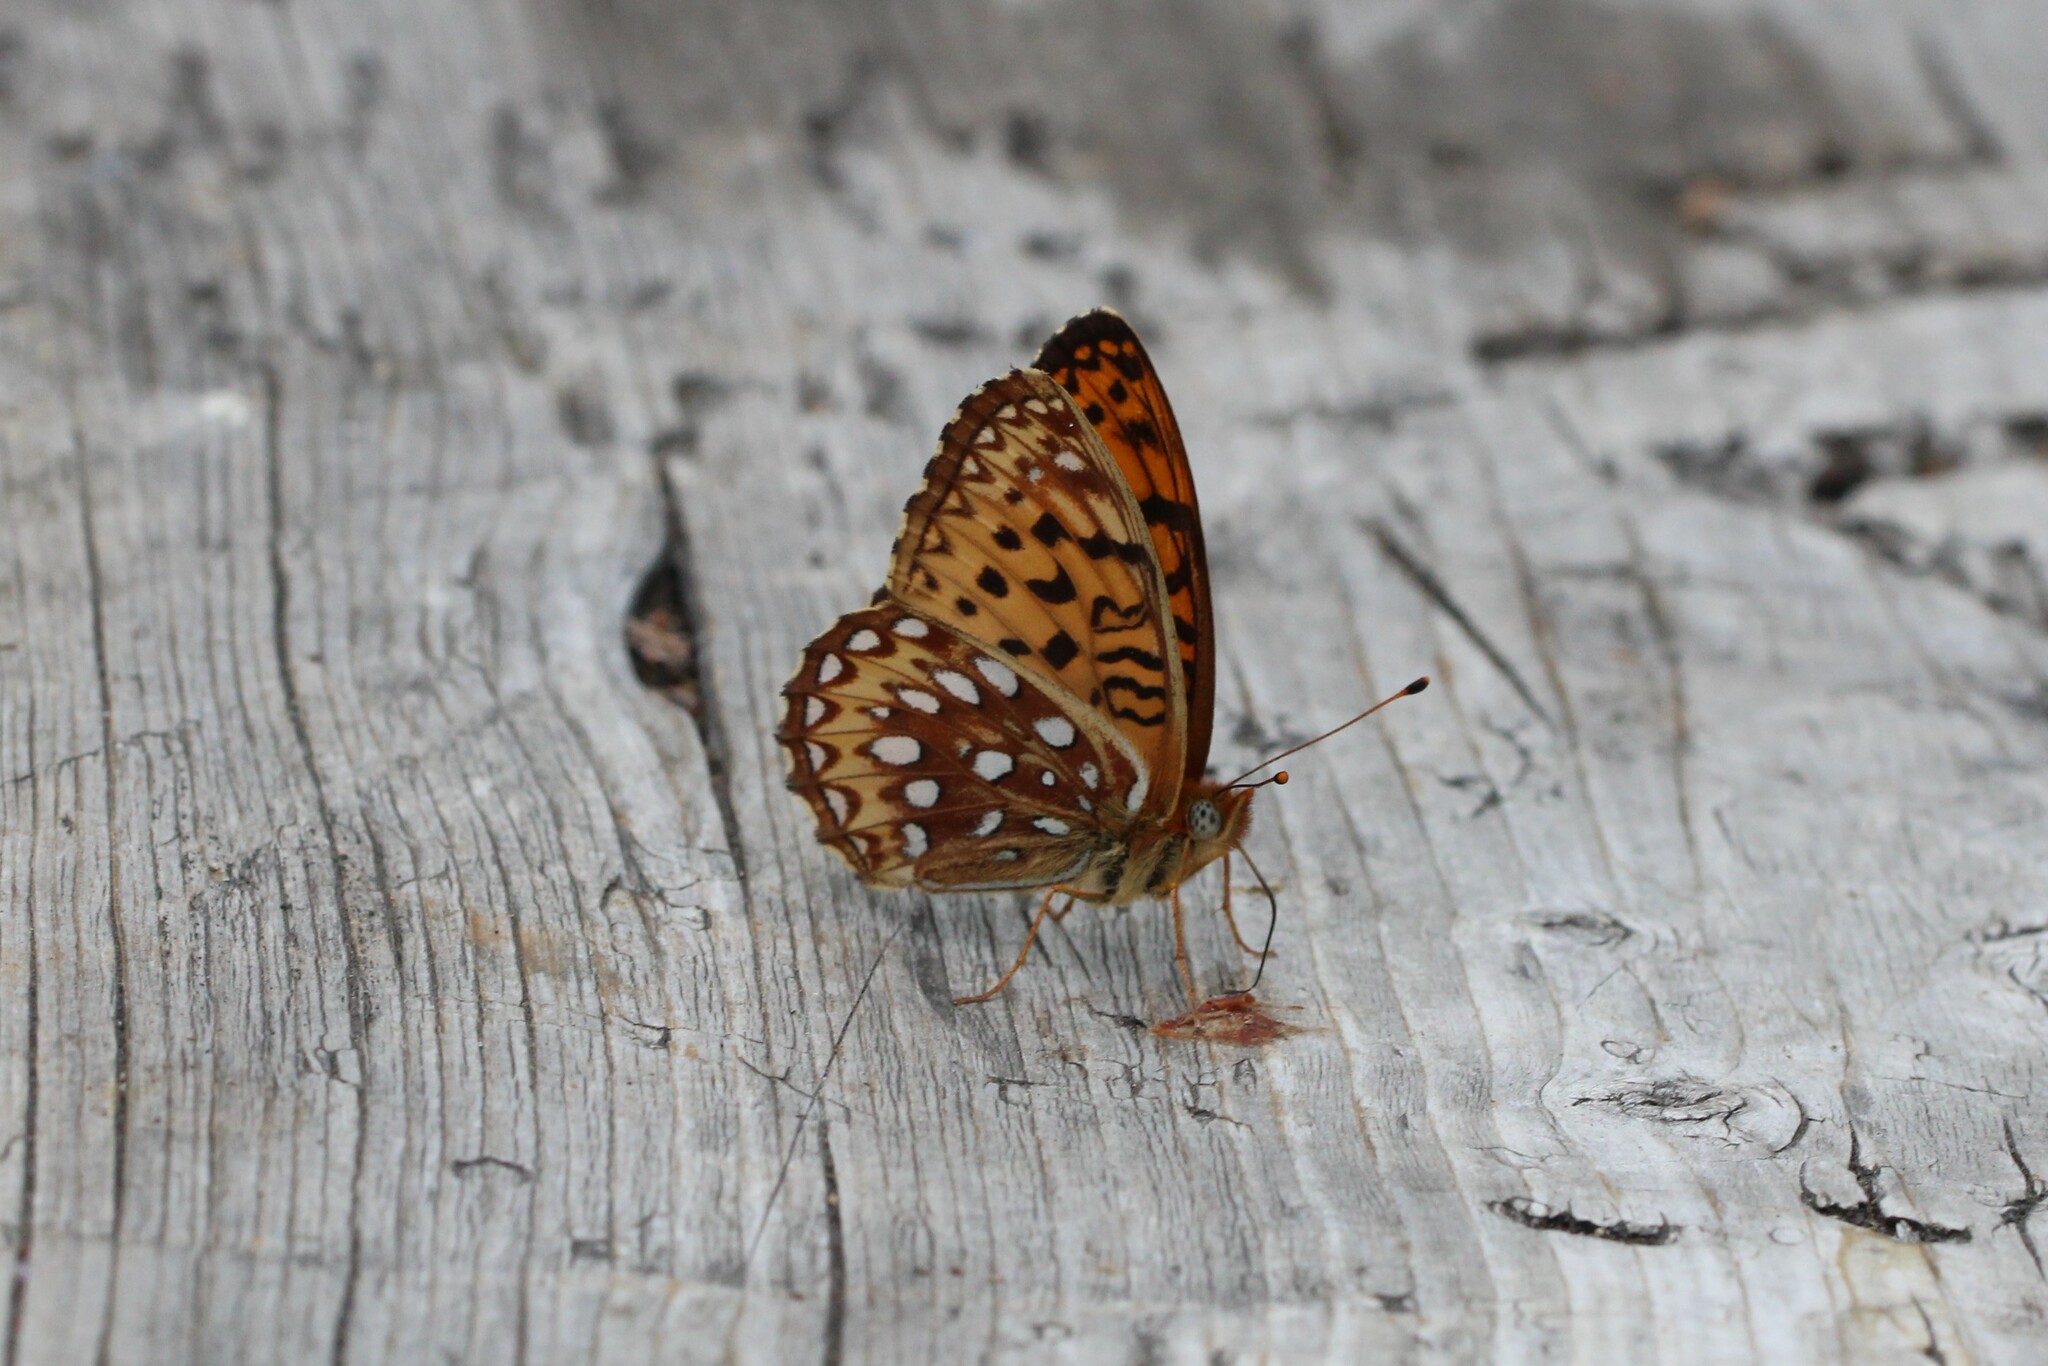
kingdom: Animalia
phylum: Arthropoda
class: Insecta
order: Lepidoptera
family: Nymphalidae
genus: Speyeria
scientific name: Speyeria atlantis
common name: Atlantis fritillary
